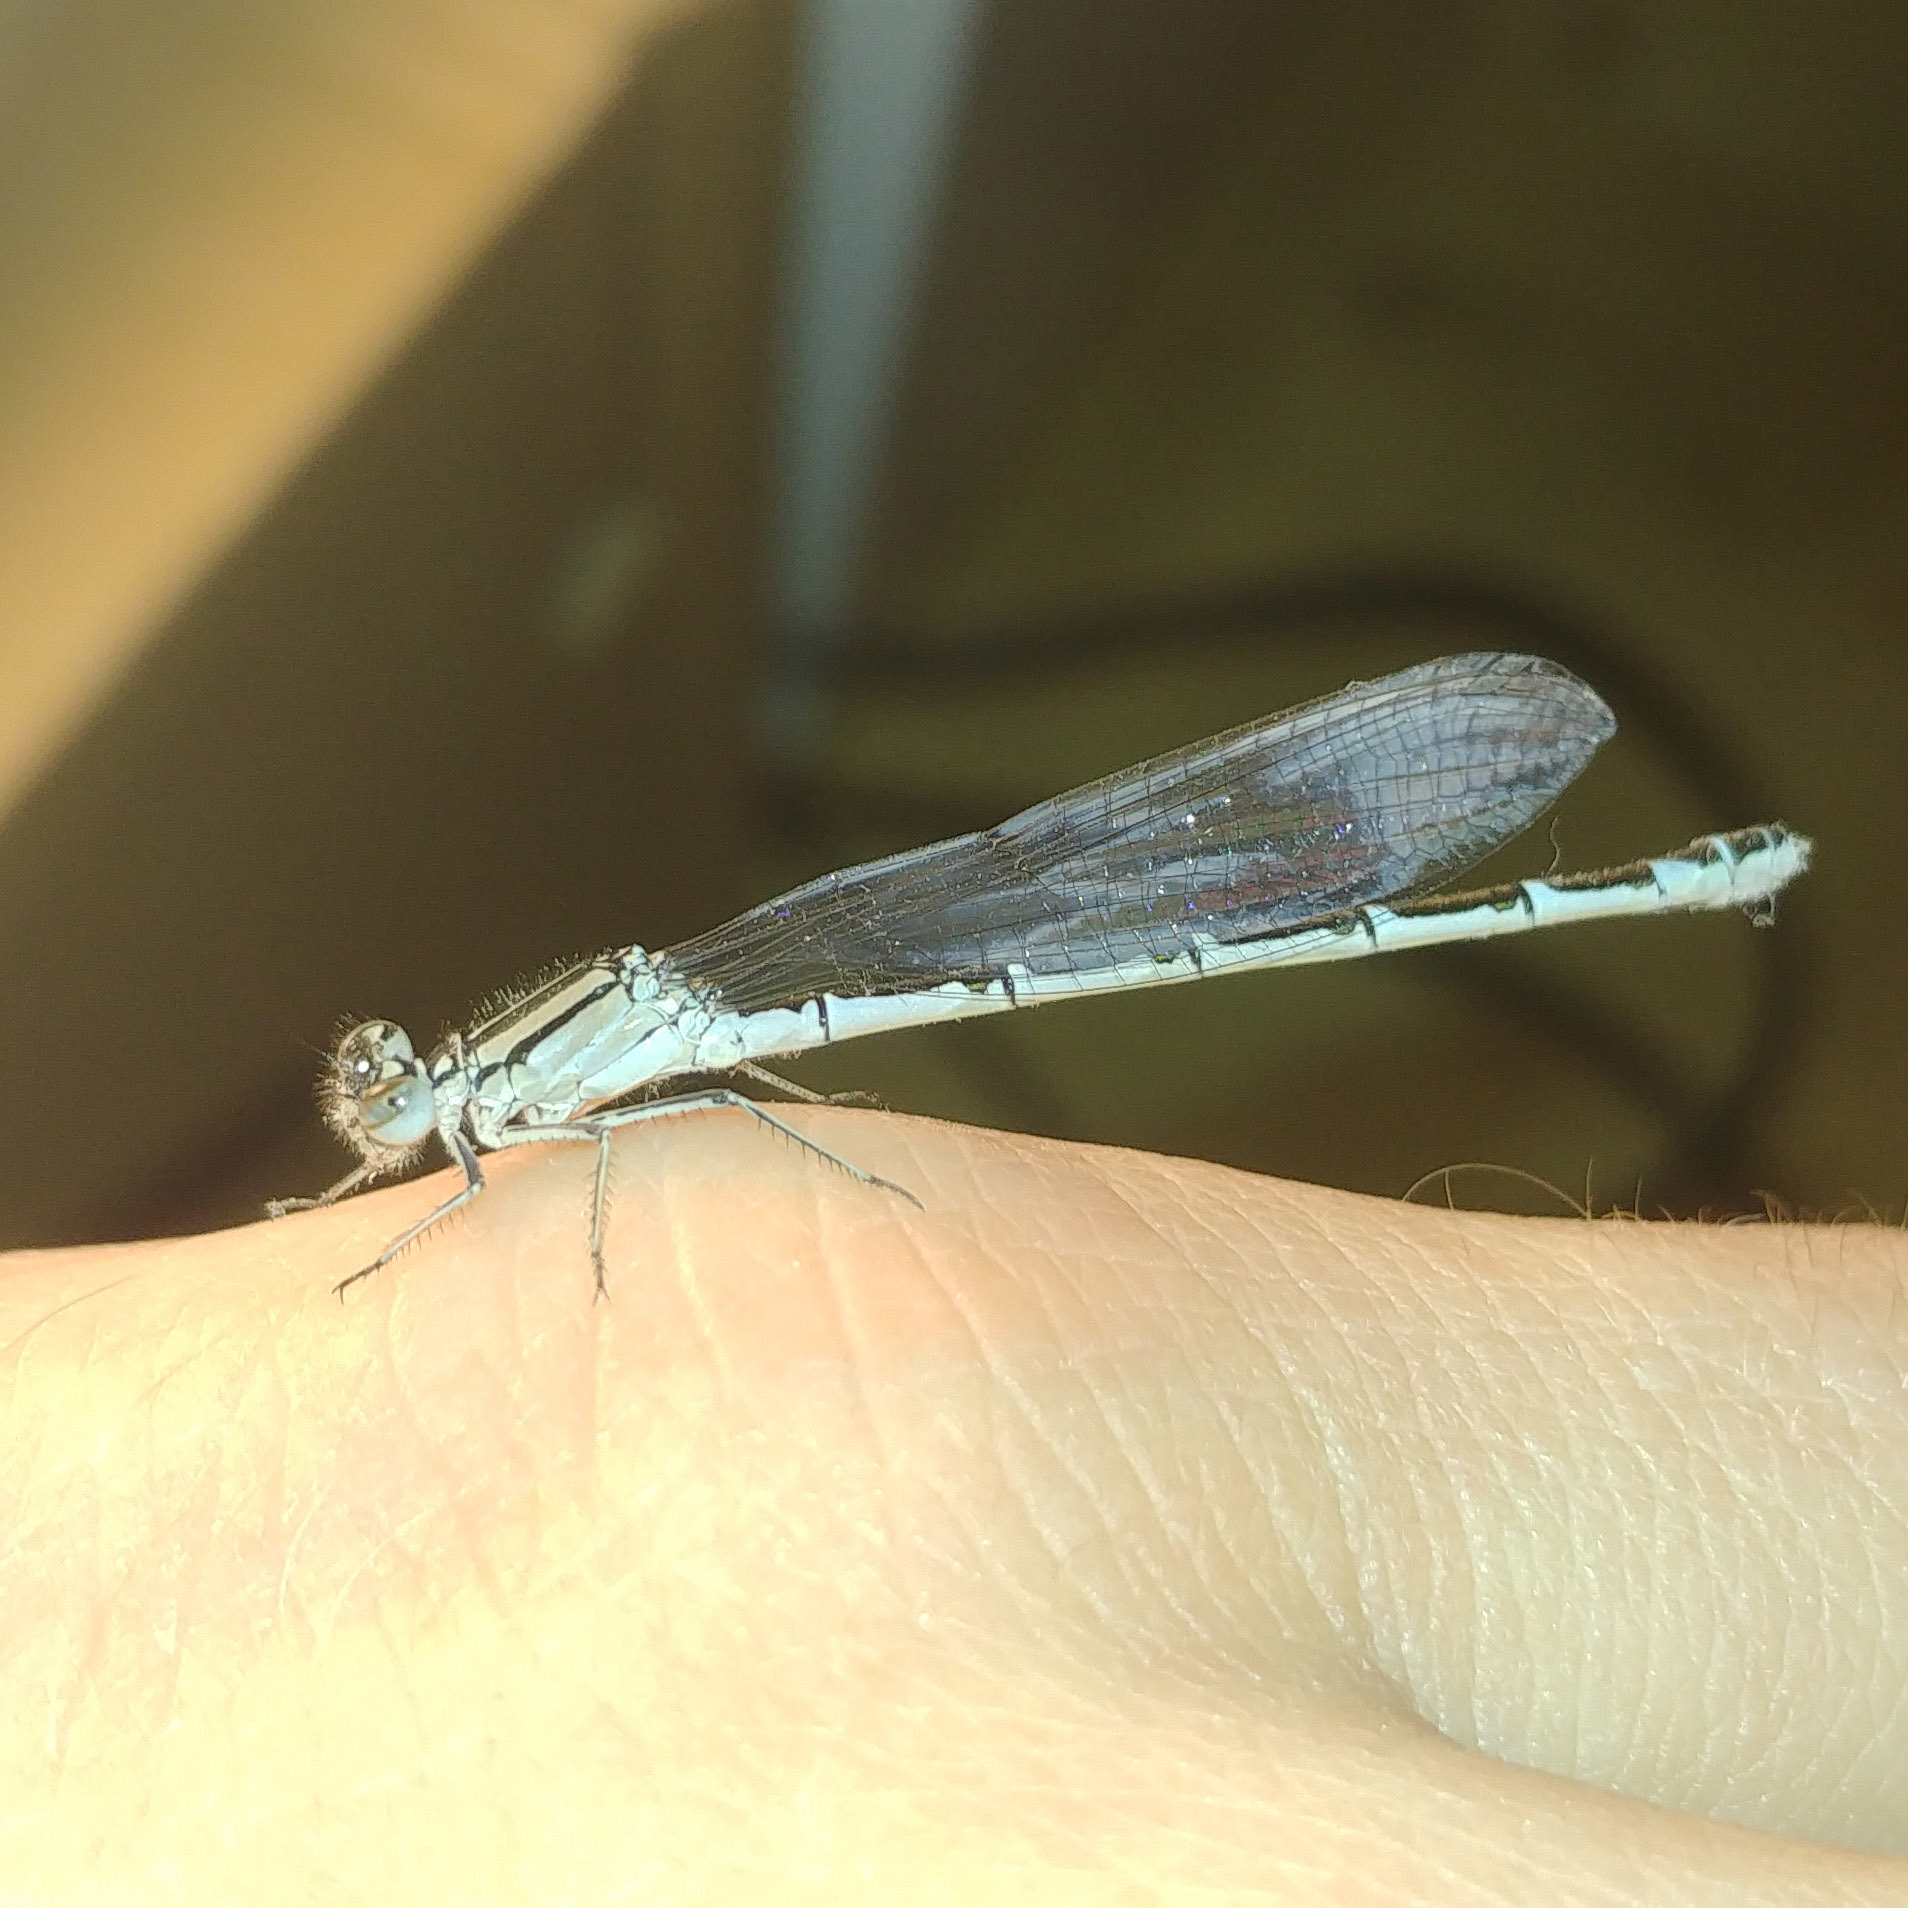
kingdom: Animalia
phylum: Arthropoda
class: Insecta
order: Odonata
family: Coenagrionidae
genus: Enallagma
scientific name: Enallagma cyathigerum
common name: Common blue damselfly
